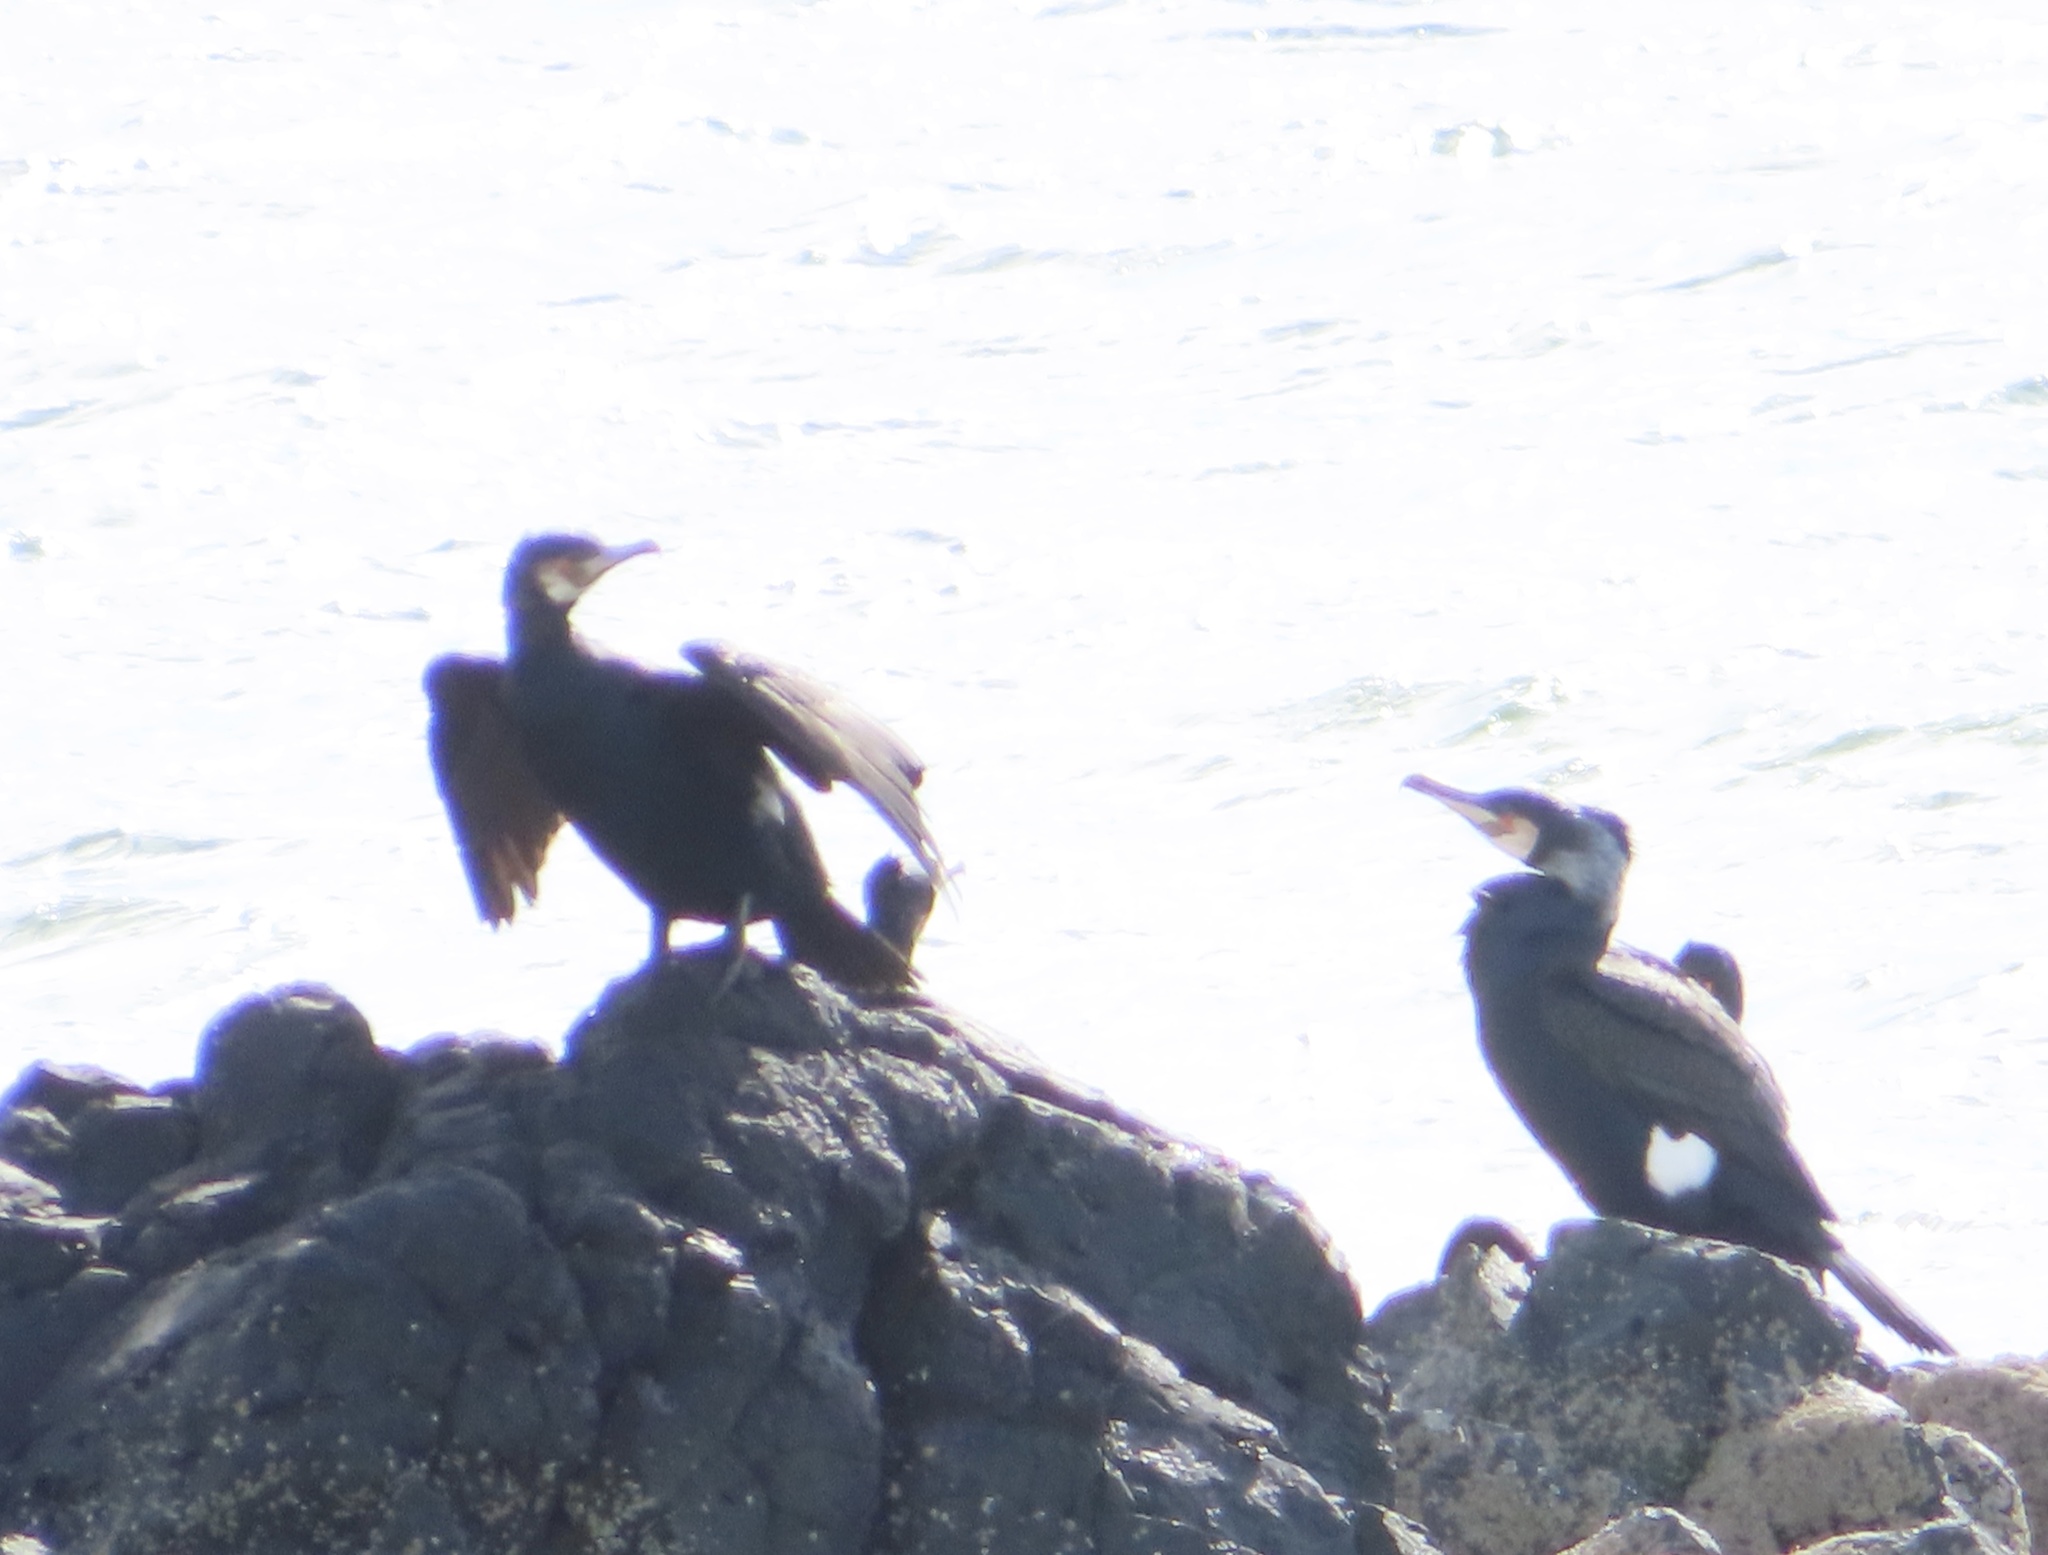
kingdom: Animalia
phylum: Chordata
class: Aves
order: Suliformes
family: Phalacrocoracidae
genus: Phalacrocorax
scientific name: Phalacrocorax carbo
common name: Great cormorant
